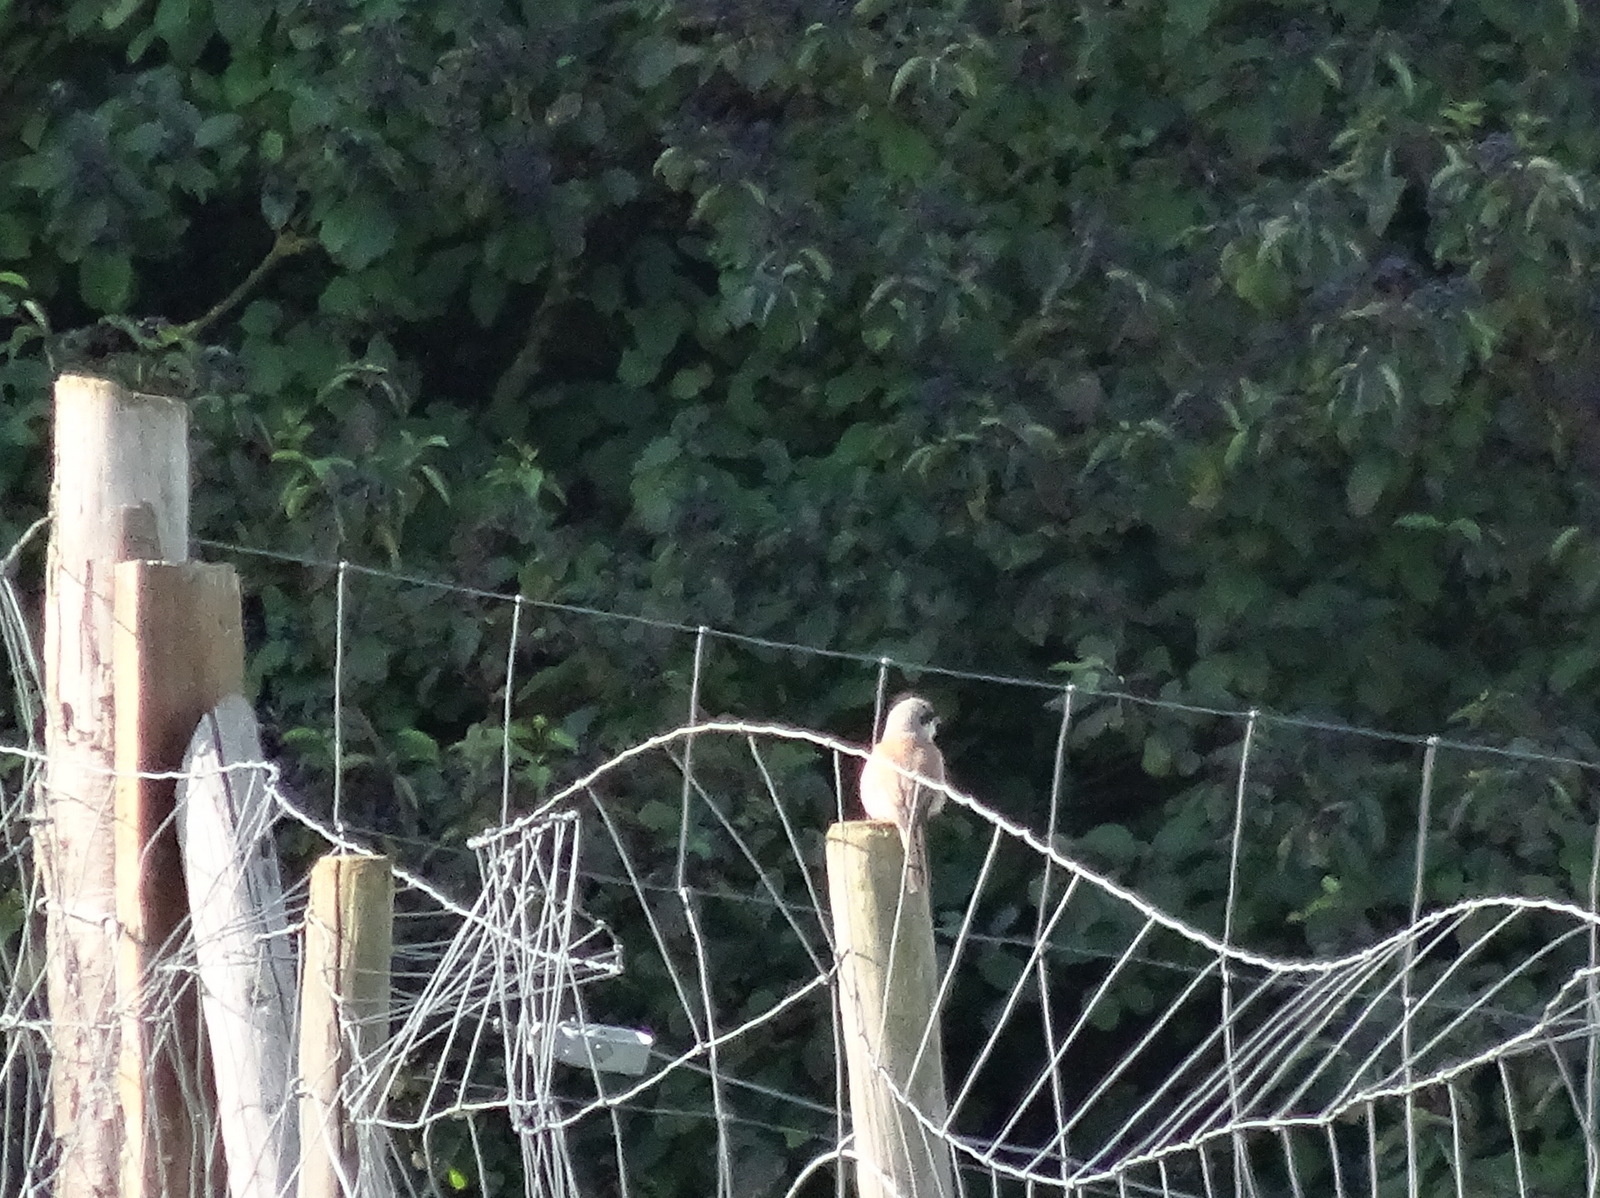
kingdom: Animalia
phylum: Chordata
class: Aves
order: Passeriformes
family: Laniidae
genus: Lanius
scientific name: Lanius collurio
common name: Red-backed shrike
